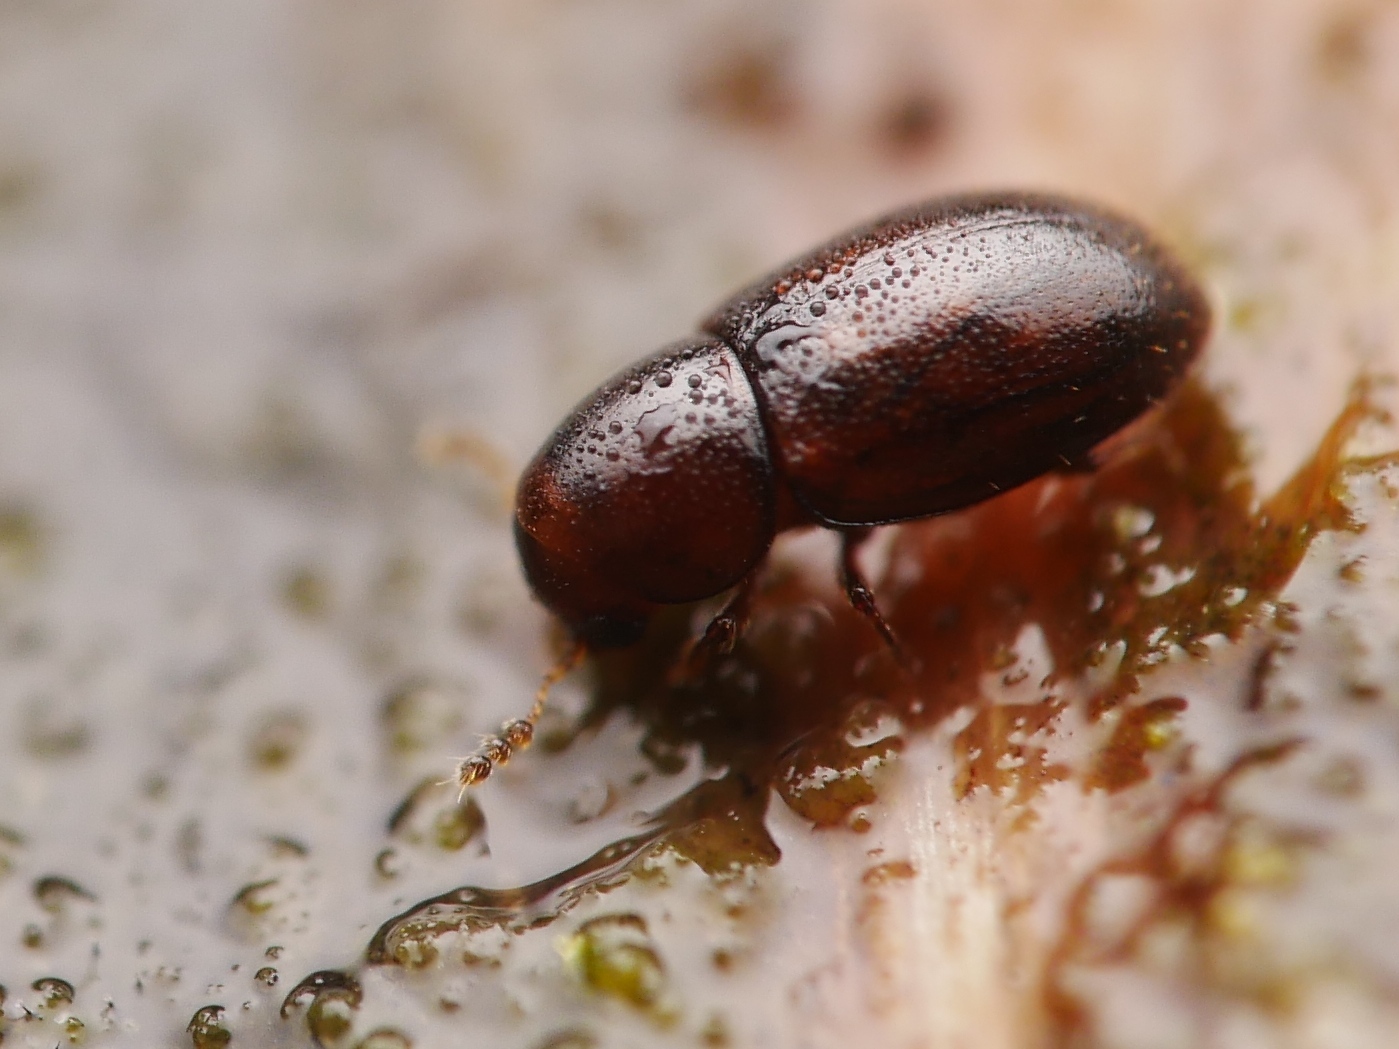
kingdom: Animalia
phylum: Arthropoda
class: Insecta
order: Coleoptera
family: Ciidae
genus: Octotemnus
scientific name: Octotemnus glabriculus
